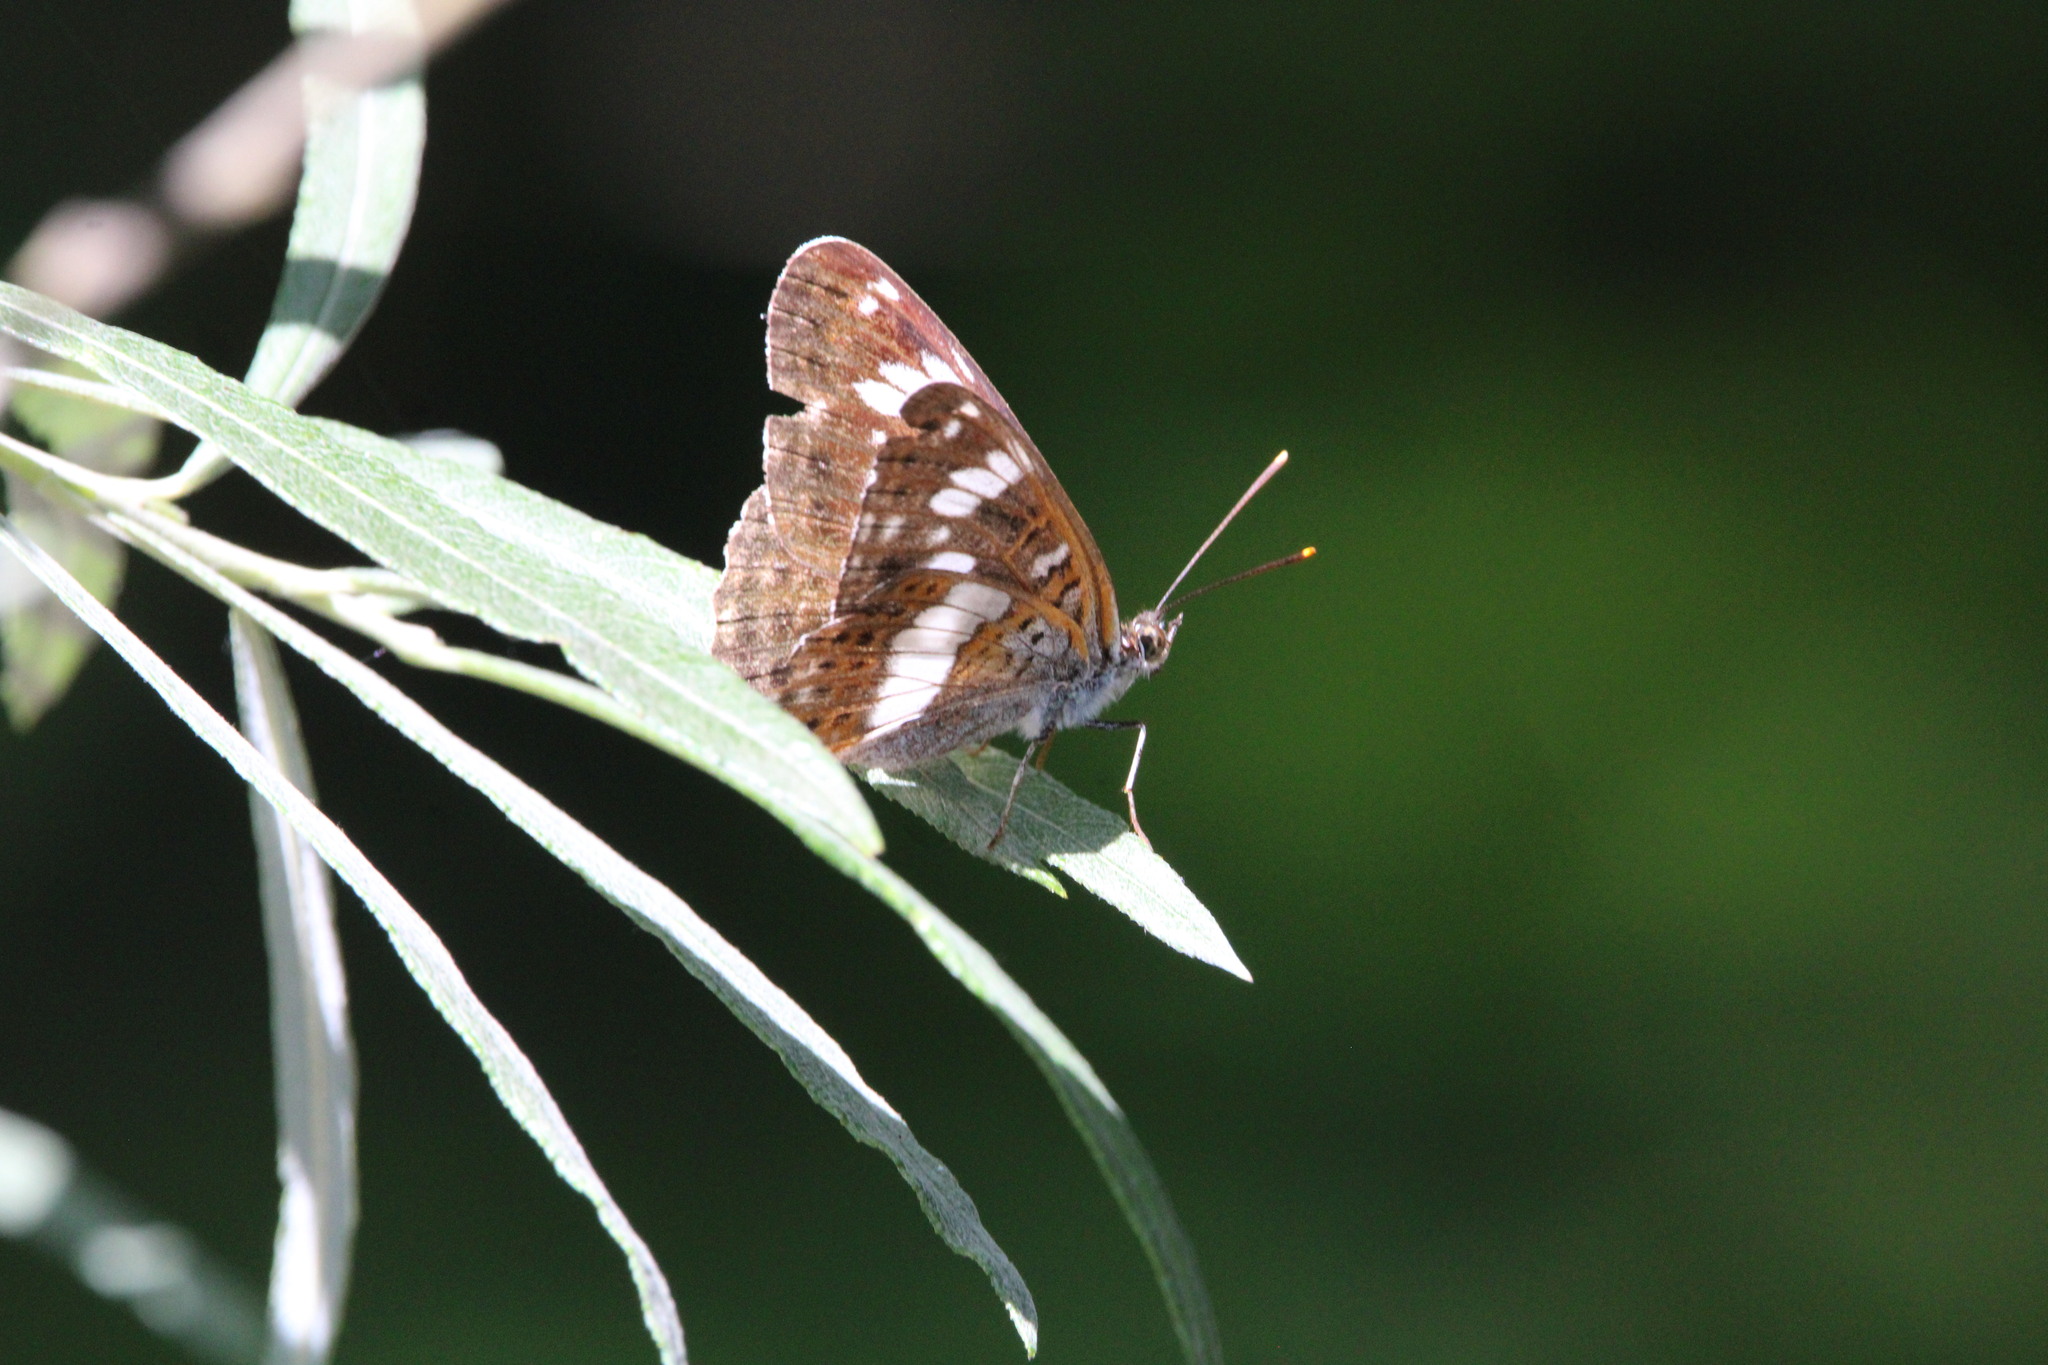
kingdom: Animalia
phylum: Arthropoda
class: Insecta
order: Lepidoptera
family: Nymphalidae
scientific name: Nymphalidae
